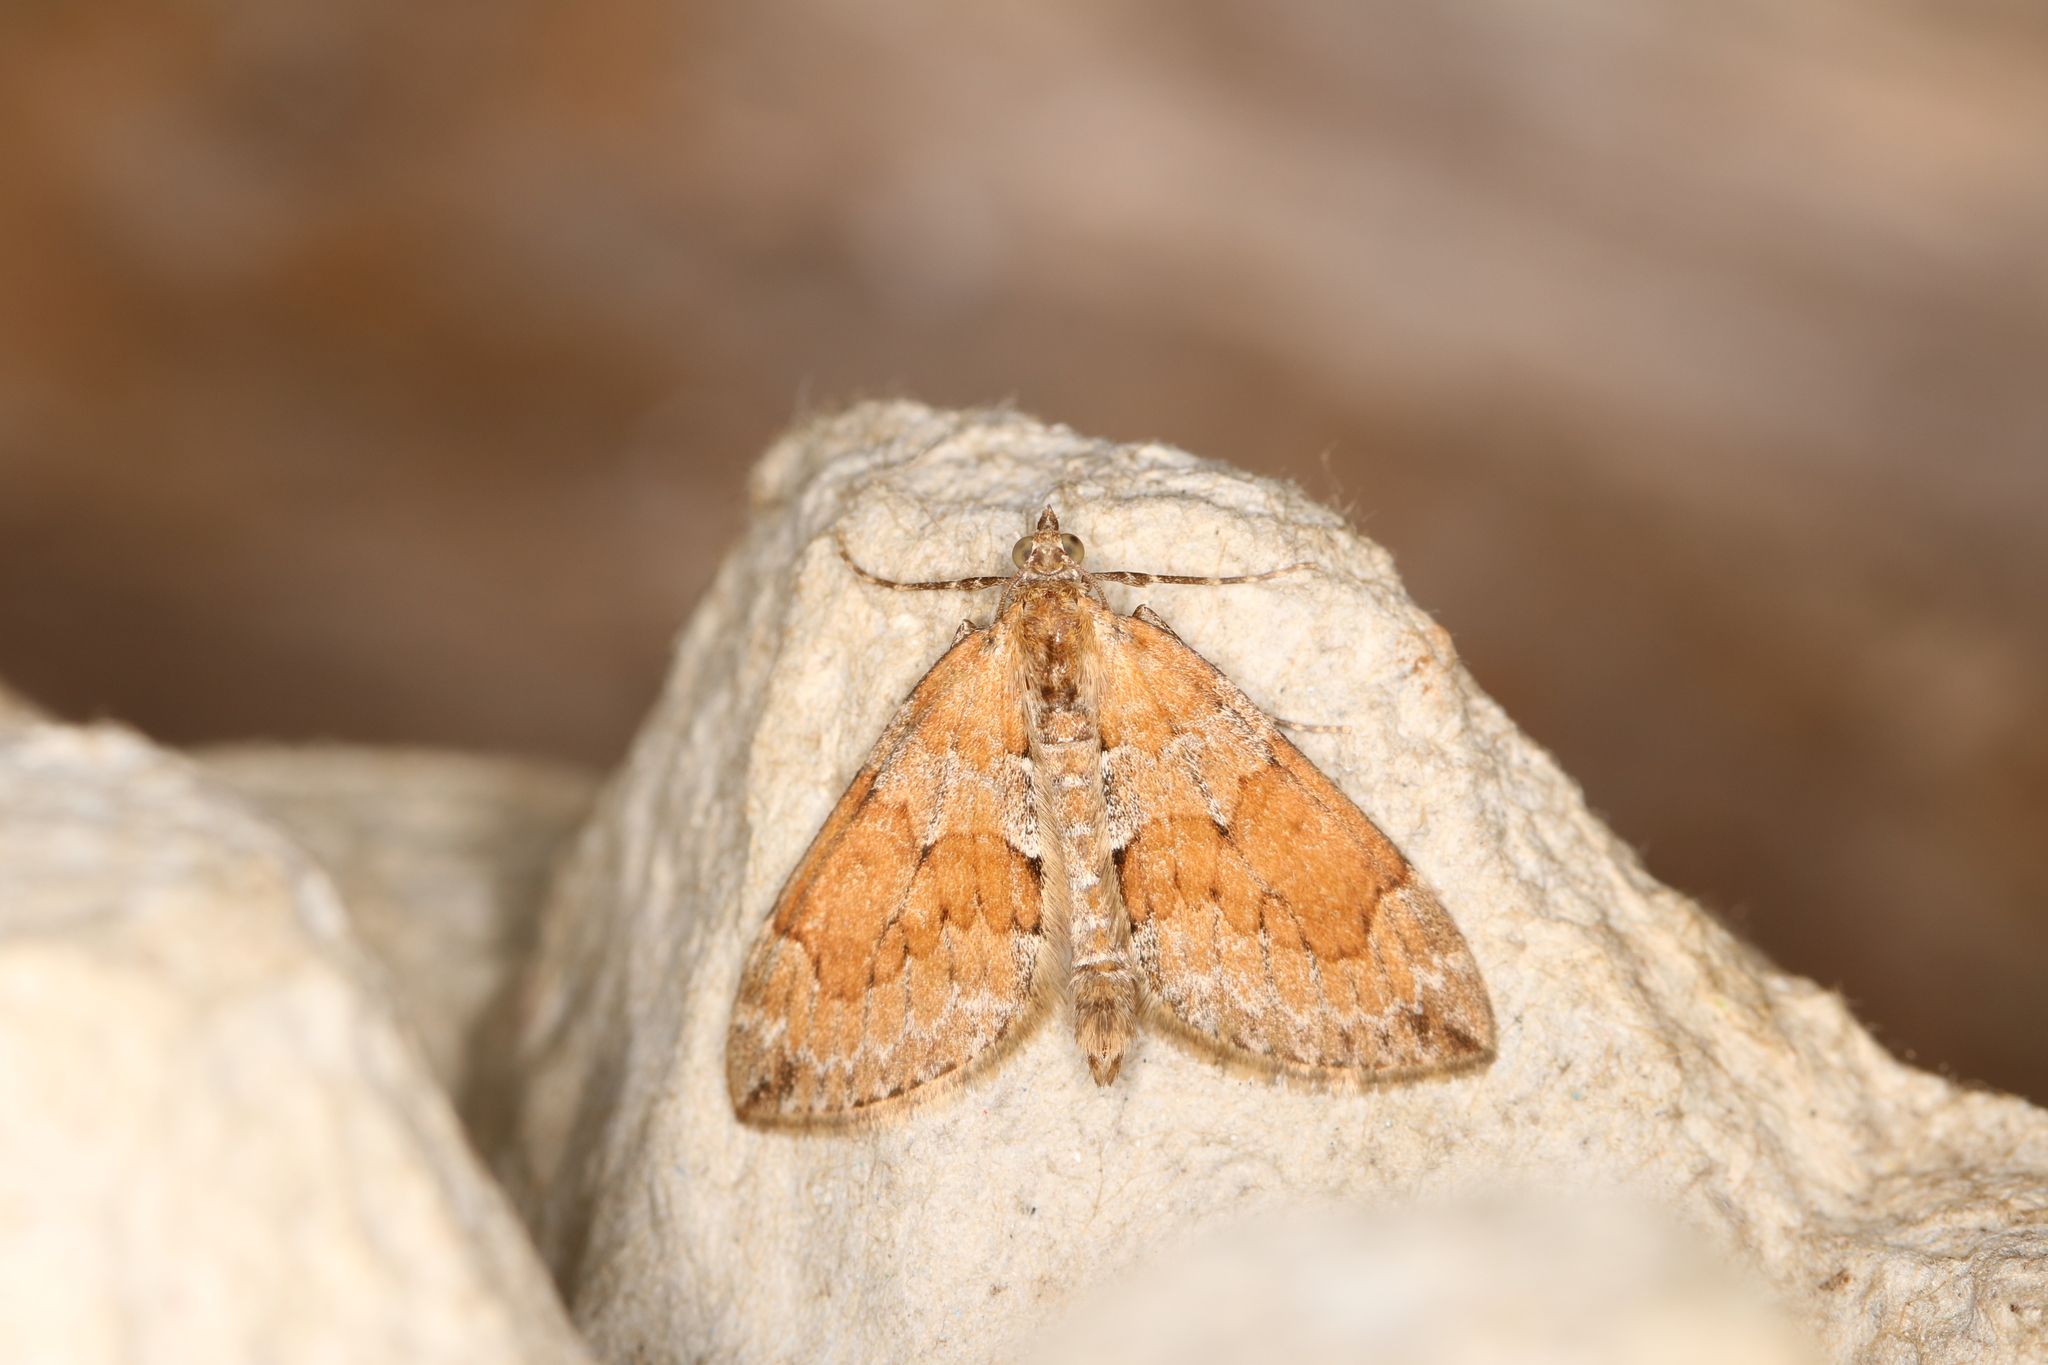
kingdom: Animalia
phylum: Arthropoda
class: Insecta
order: Lepidoptera
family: Geometridae
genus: Thera
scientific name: Thera obeliscata
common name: Grey pine carpet
